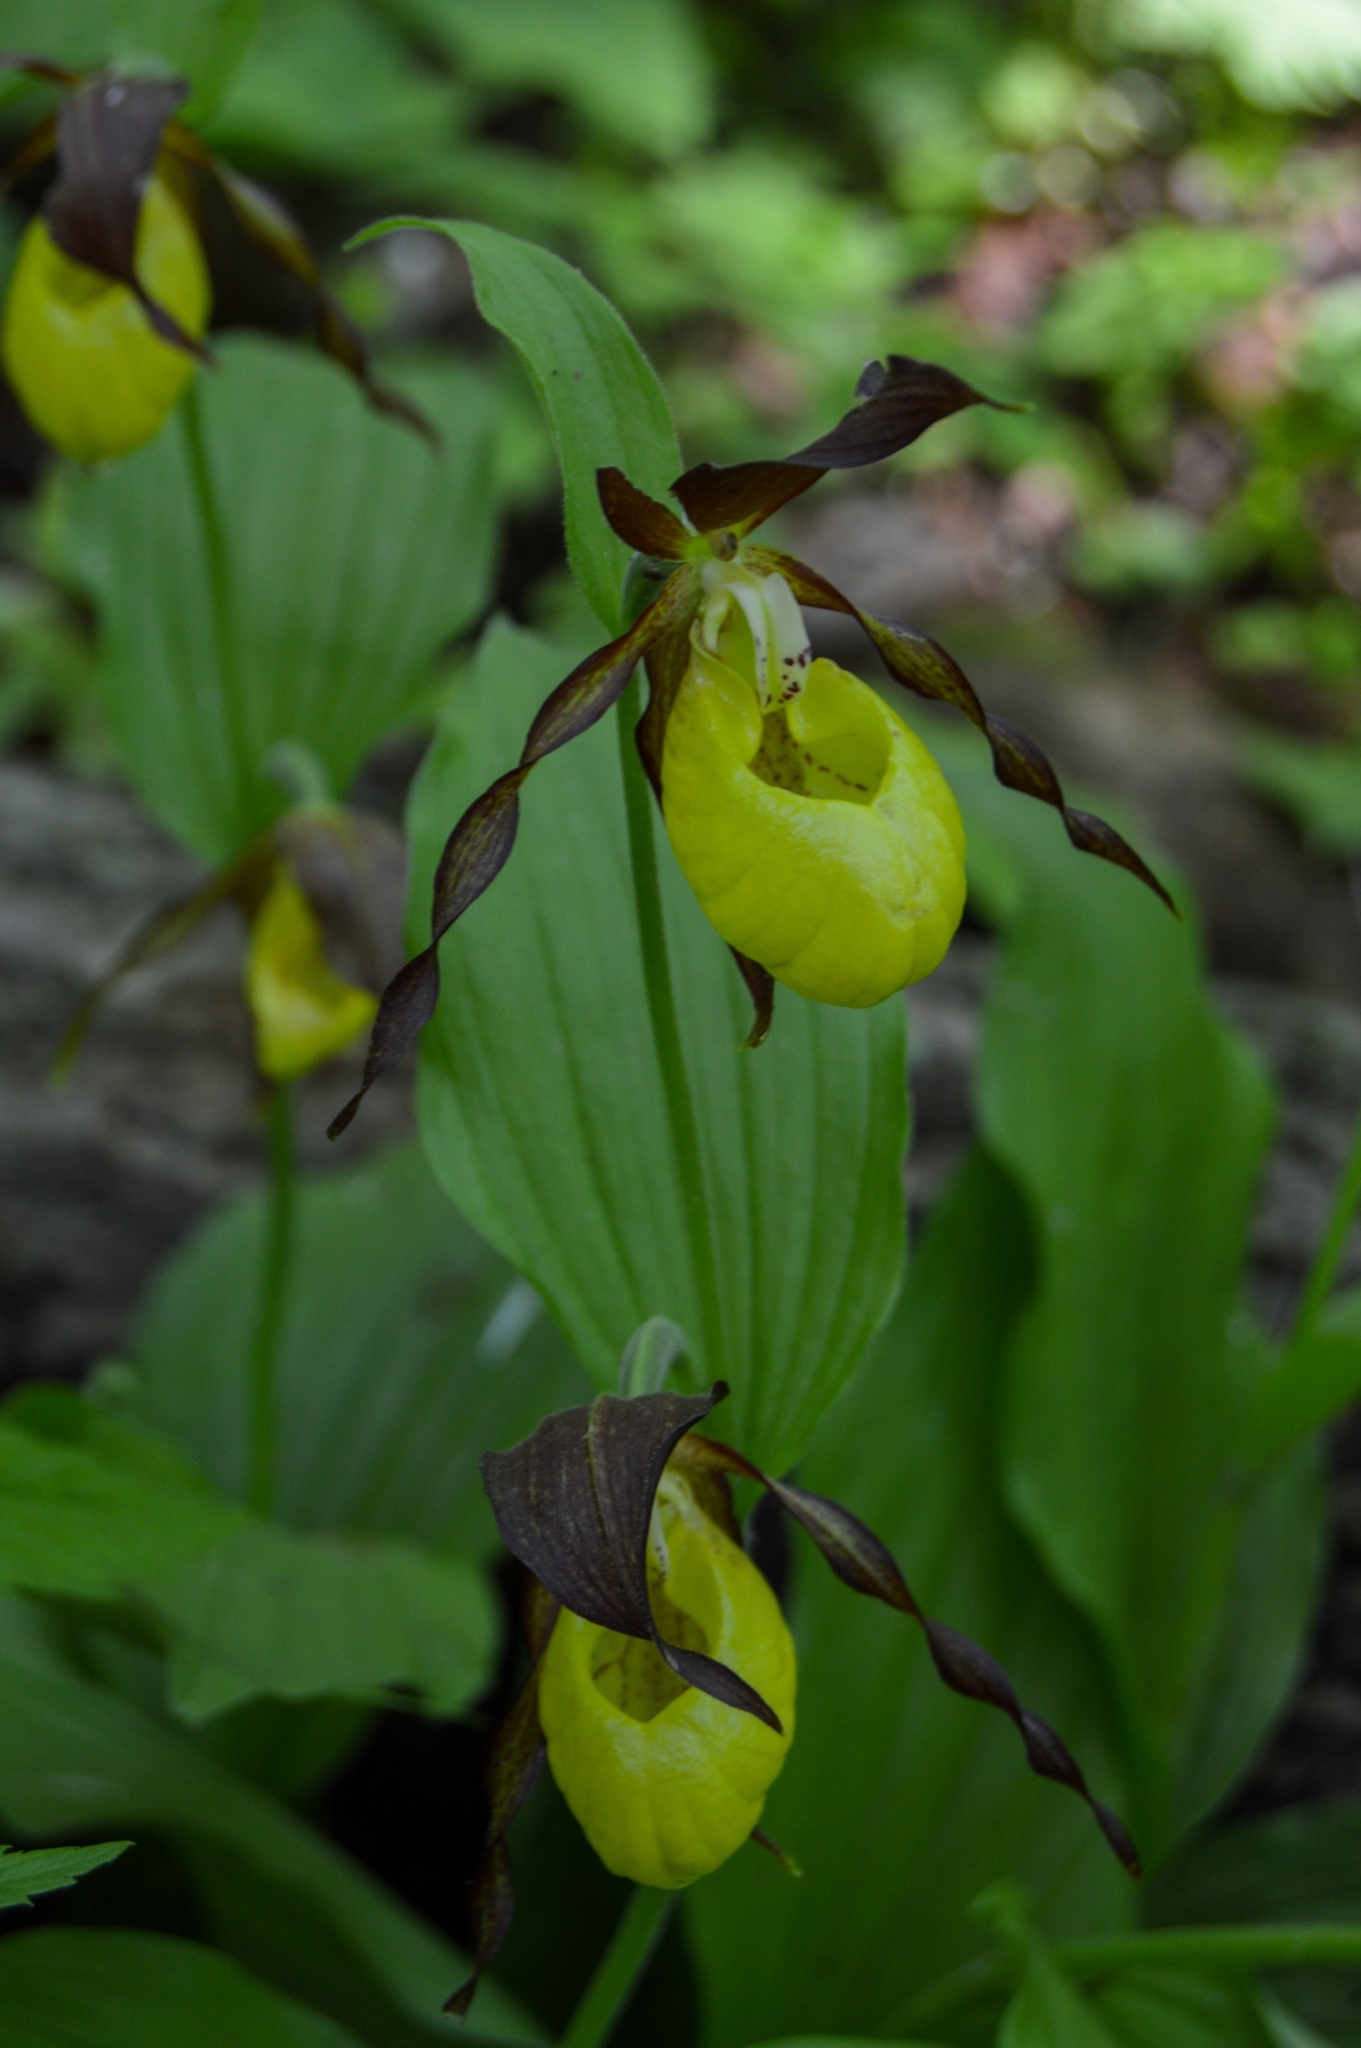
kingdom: Plantae
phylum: Tracheophyta
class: Liliopsida
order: Asparagales
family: Orchidaceae
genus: Cypripedium
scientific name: Cypripedium calceolus
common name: Lady's-slipper
